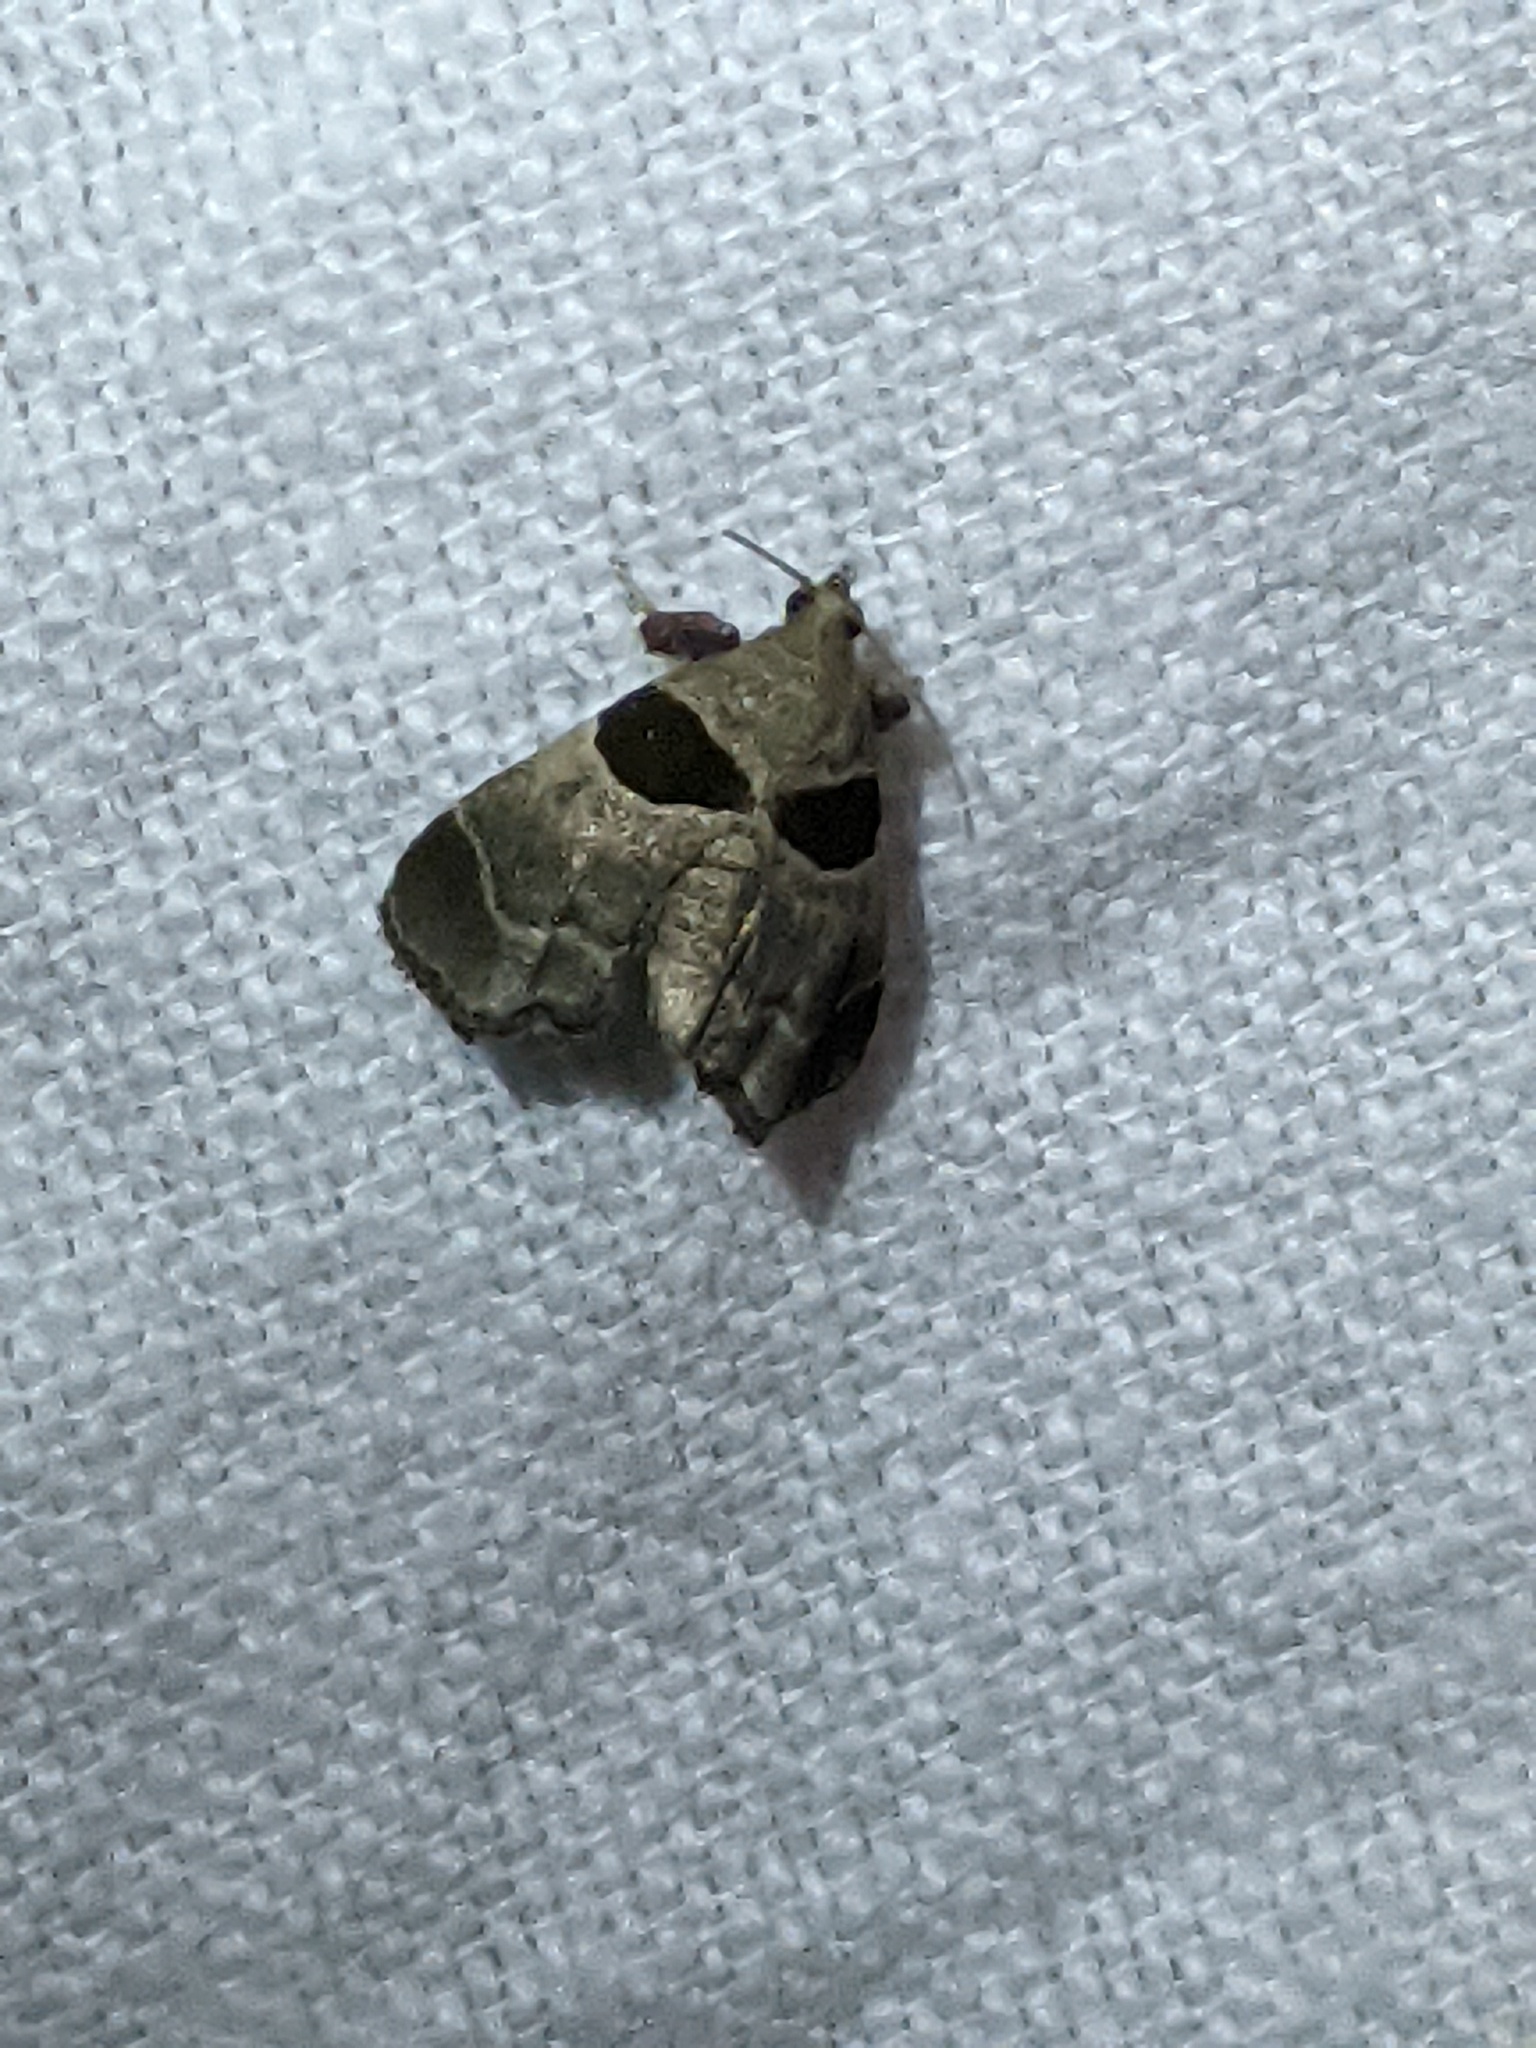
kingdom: Animalia
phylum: Arthropoda
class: Insecta
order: Lepidoptera
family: Pyralidae
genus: Tosale
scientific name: Tosale oviplagalis
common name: Dimorphic tosale moth
